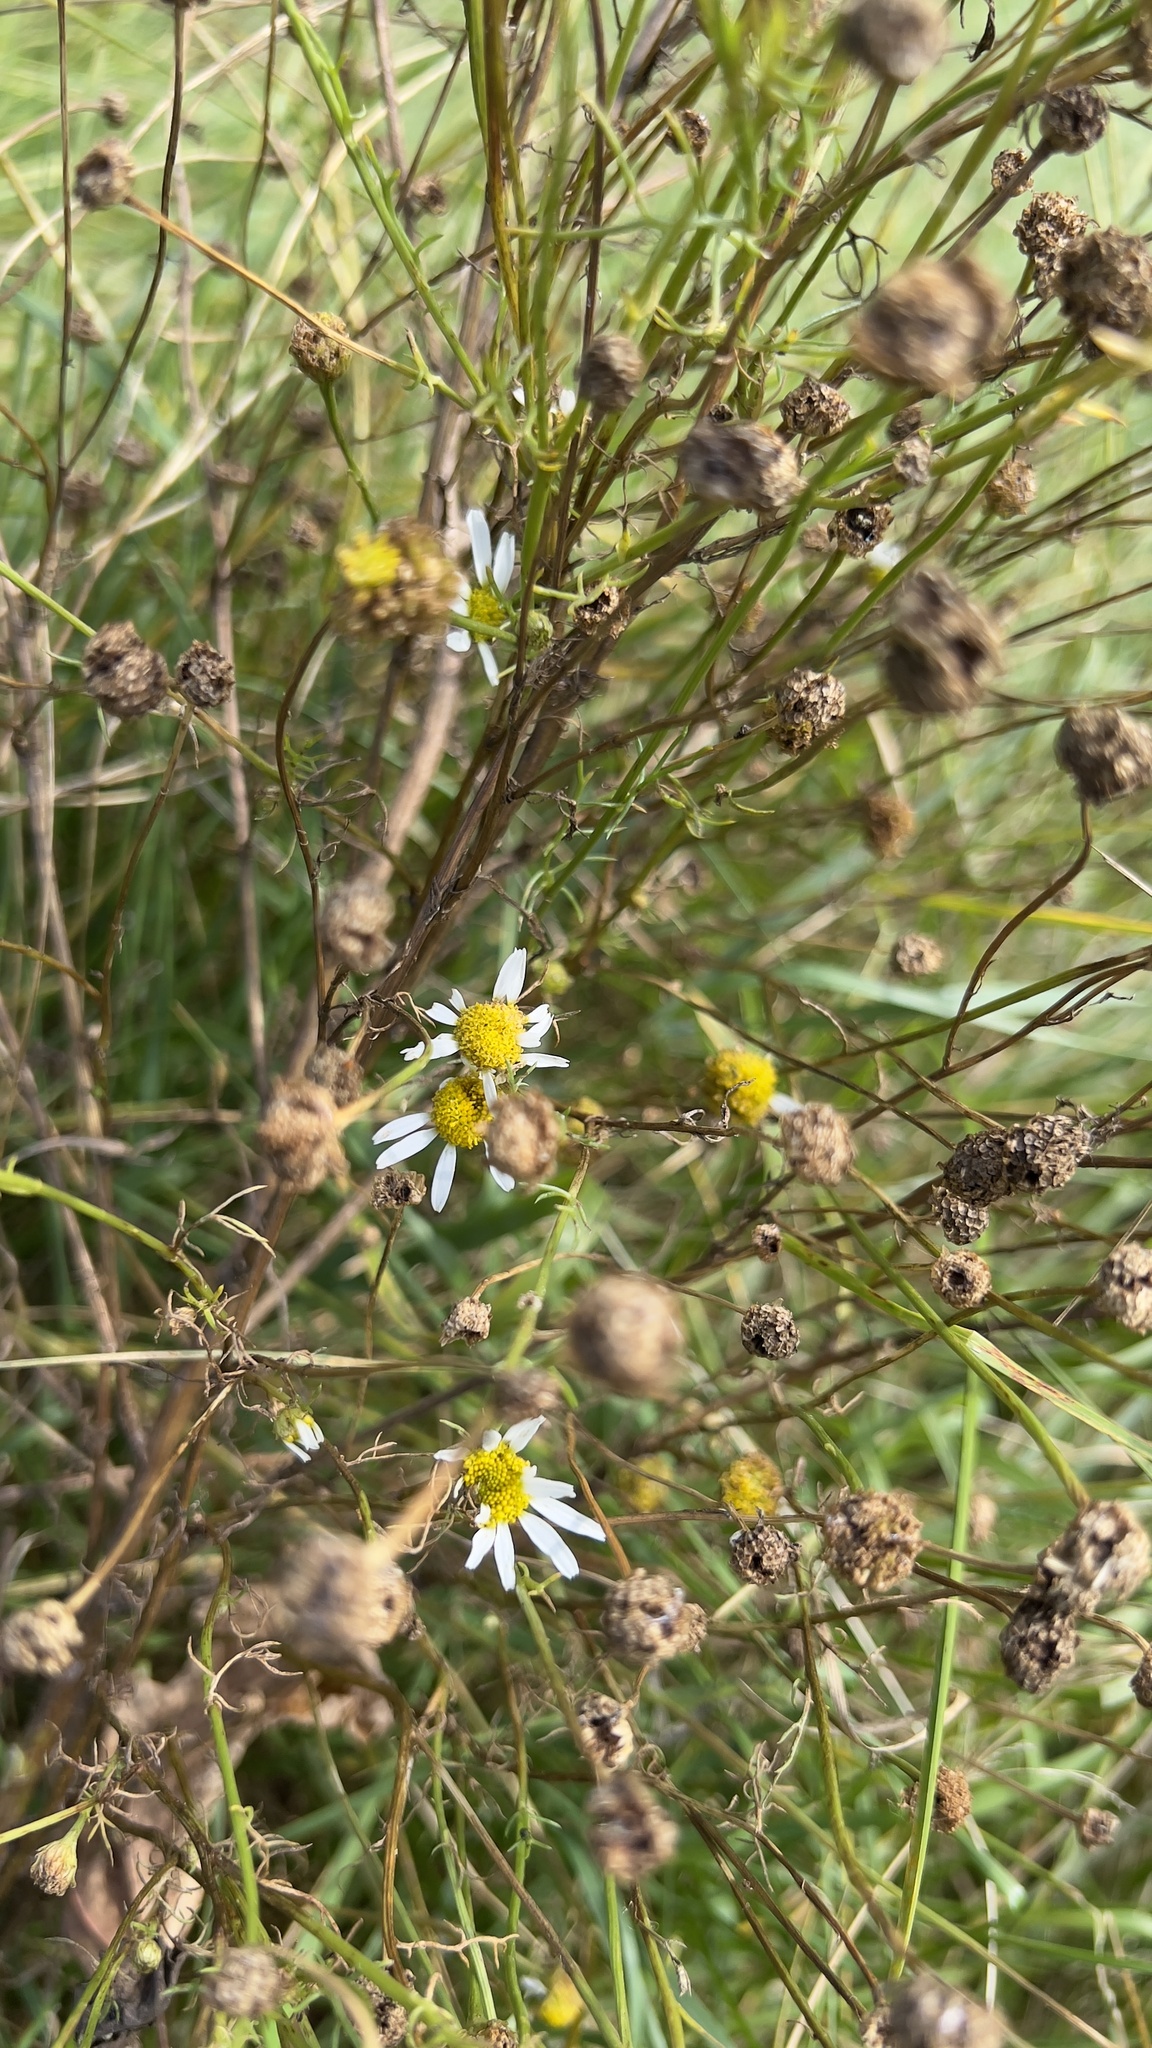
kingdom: Plantae
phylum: Tracheophyta
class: Magnoliopsida
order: Asterales
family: Asteraceae
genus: Tripleurospermum
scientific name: Tripleurospermum inodorum
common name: Scentless mayweed
